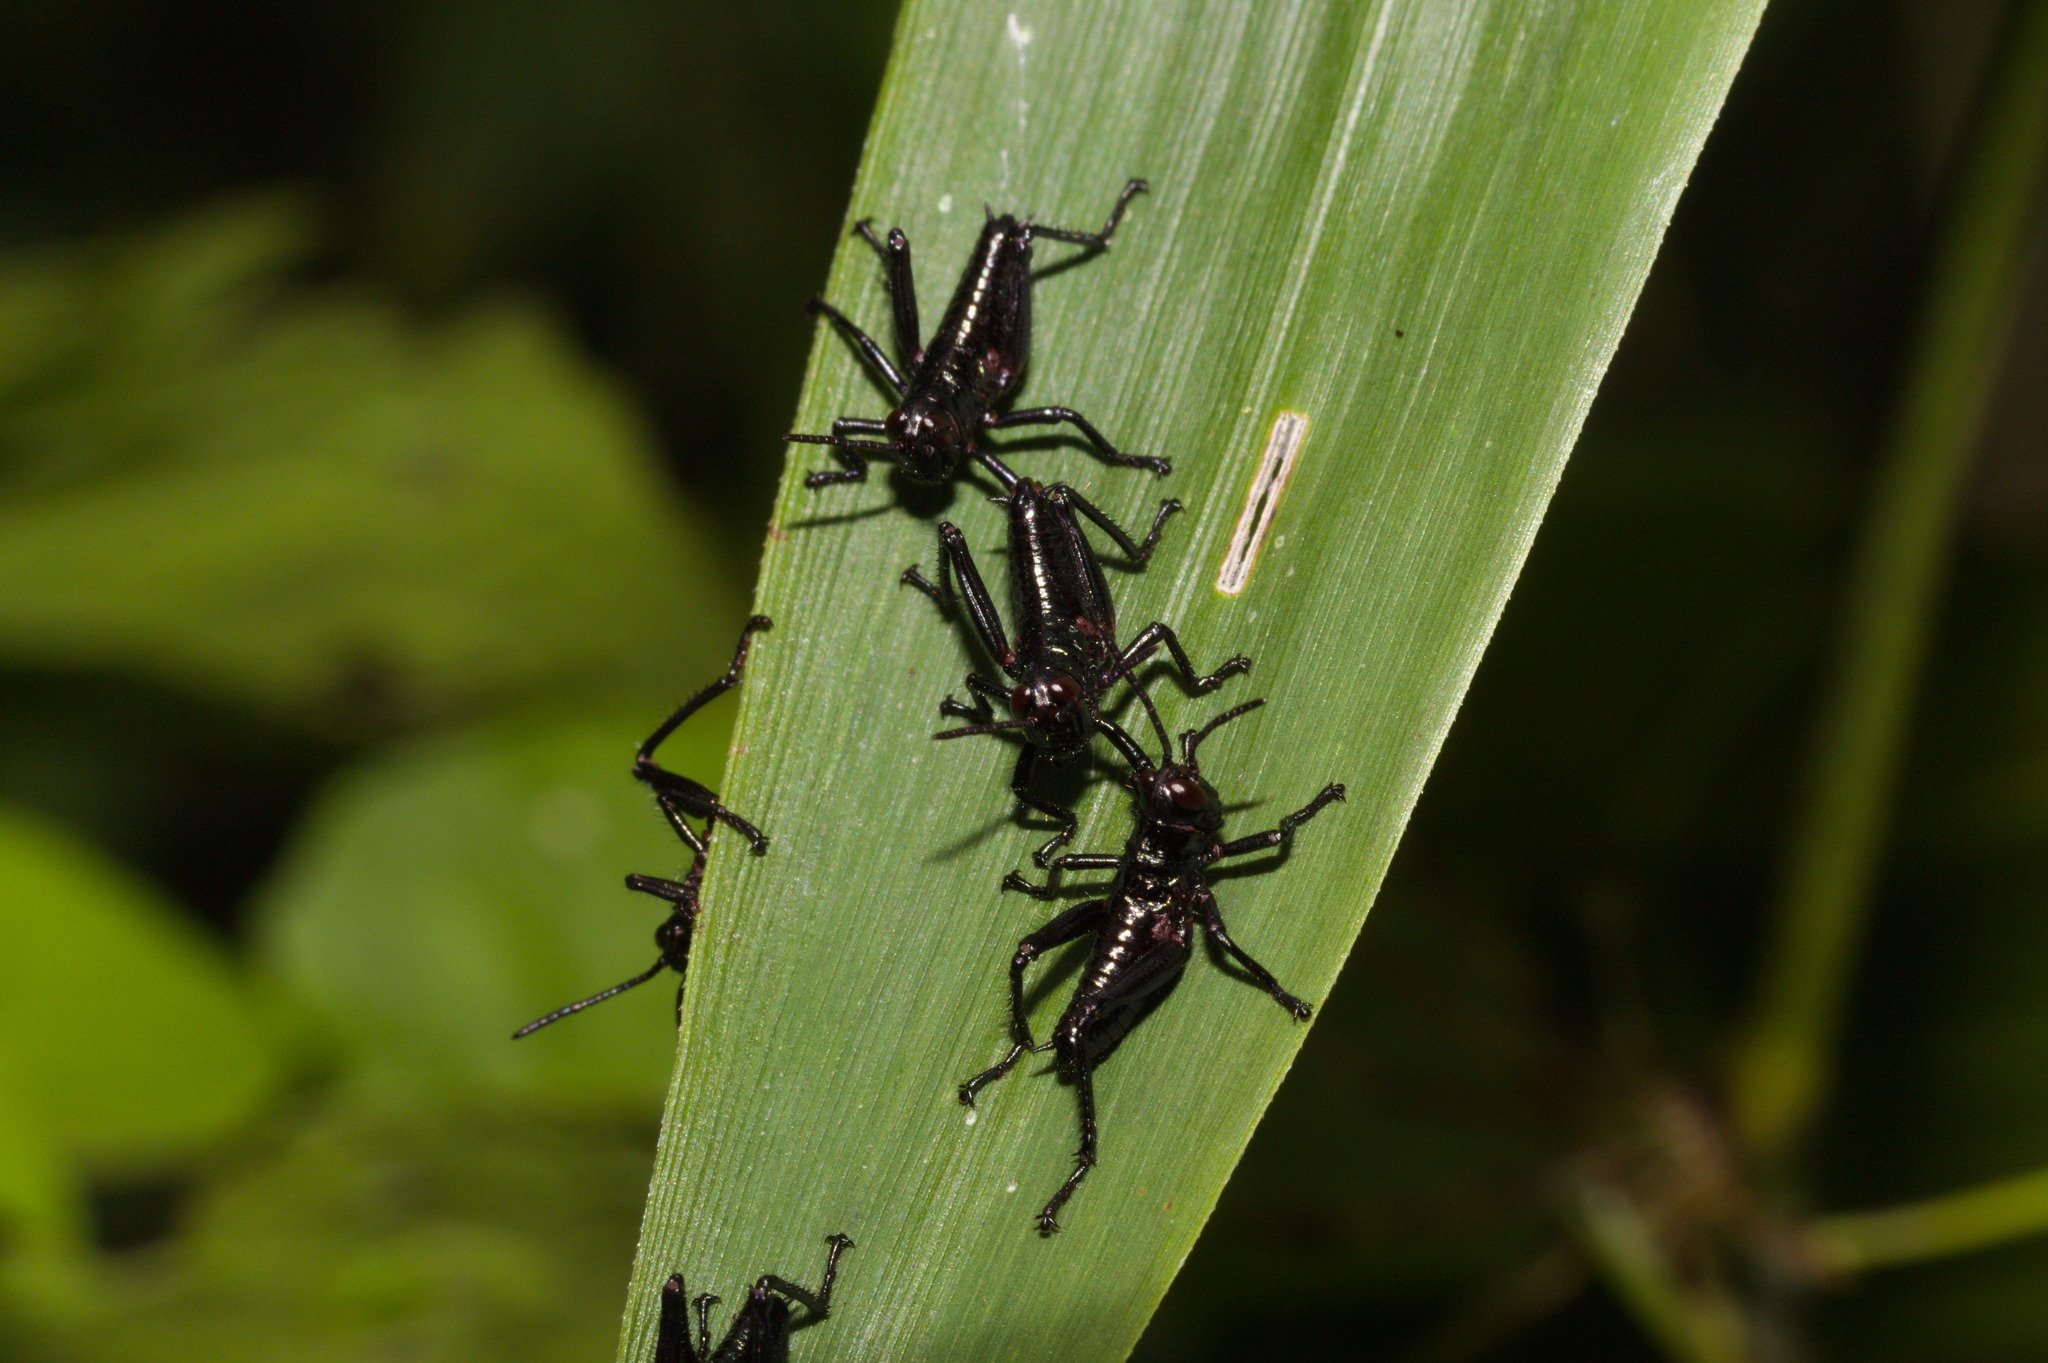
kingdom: Animalia
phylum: Arthropoda
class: Insecta
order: Orthoptera
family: Romaleidae
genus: Chromacris
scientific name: Chromacris speciosa
